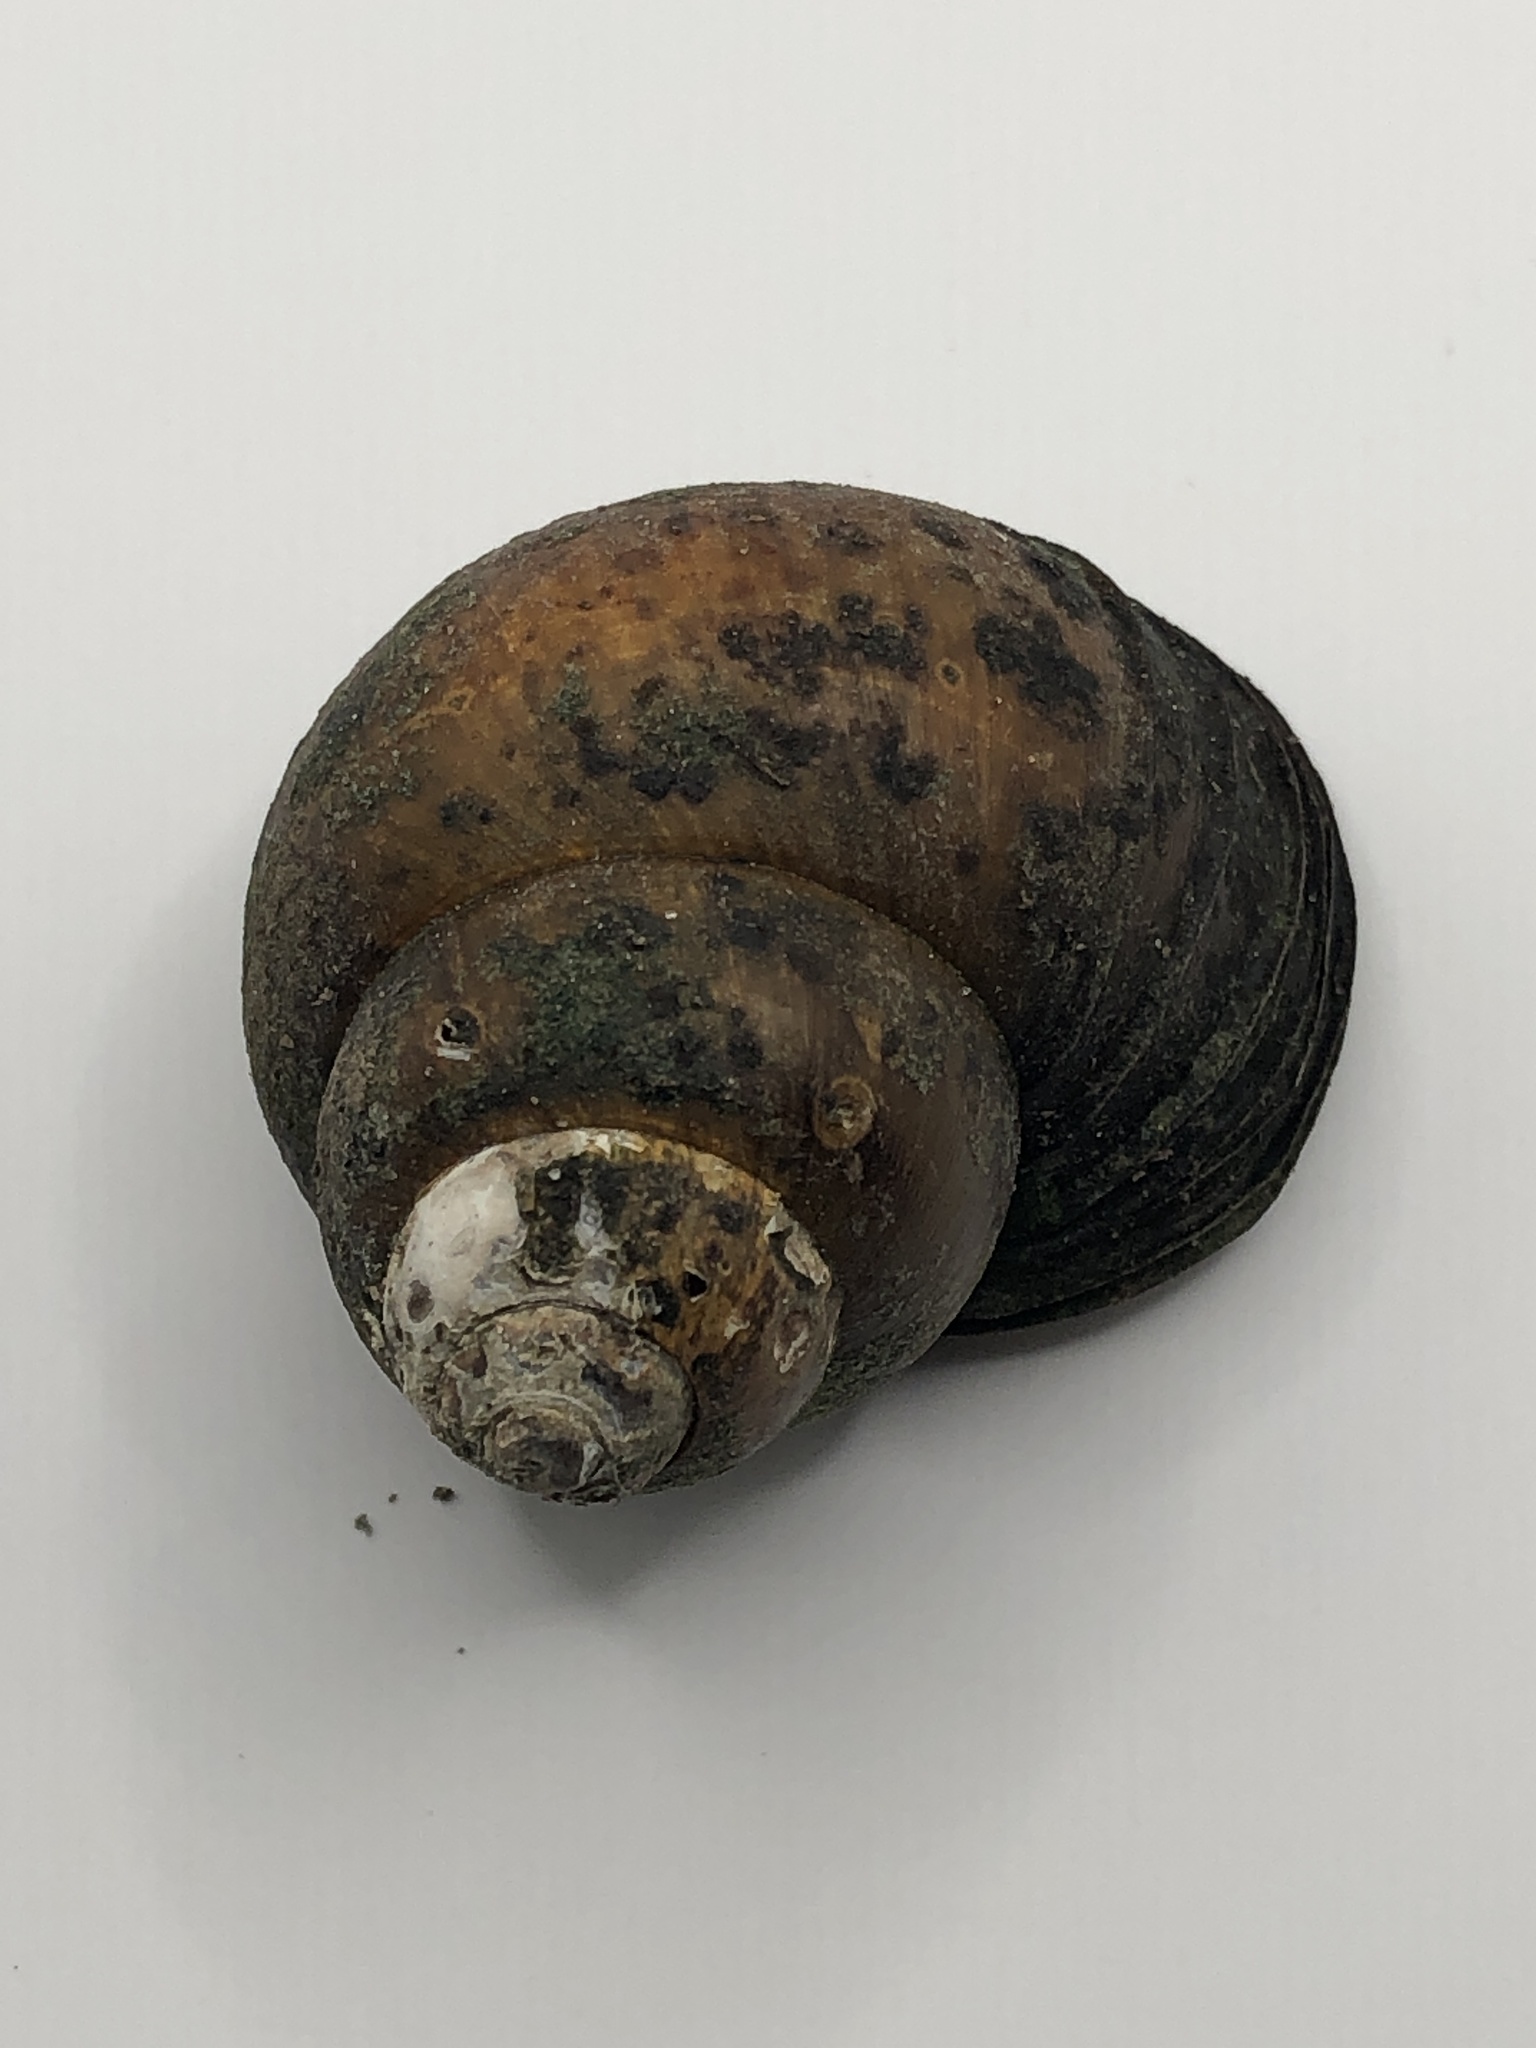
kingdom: Animalia
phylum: Mollusca
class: Gastropoda
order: Architaenioglossa
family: Viviparidae
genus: Cipangopaludina
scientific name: Cipangopaludina chinensis
